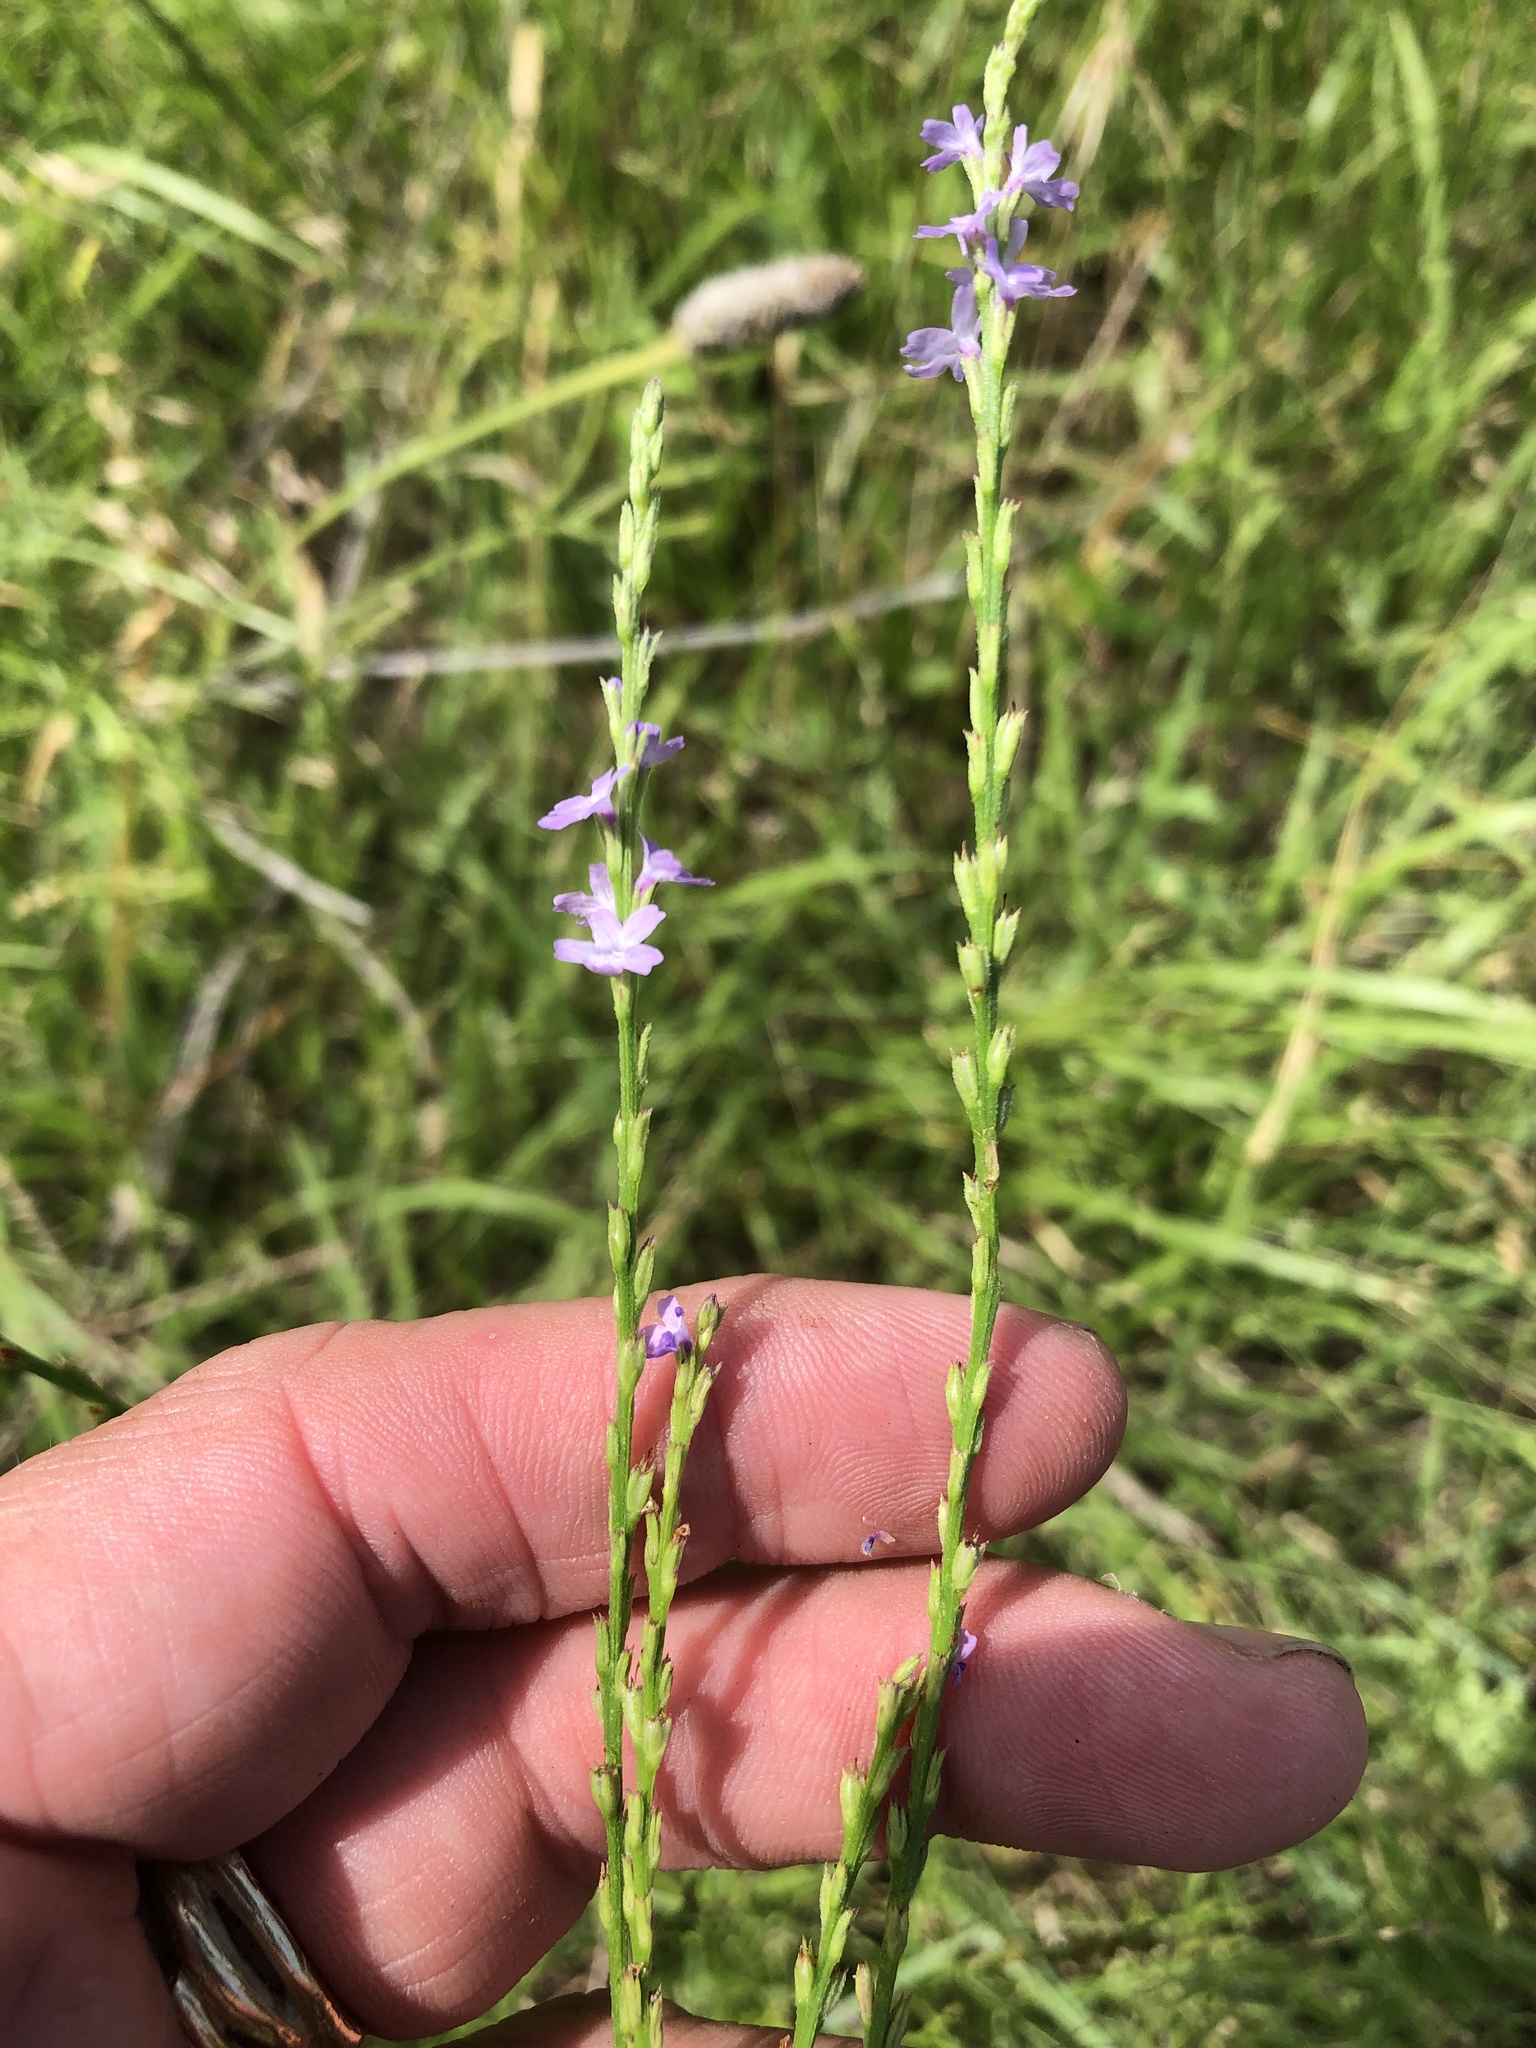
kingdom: Plantae
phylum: Tracheophyta
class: Magnoliopsida
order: Lamiales
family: Verbenaceae
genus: Verbena
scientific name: Verbena halei
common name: Texas vervain
